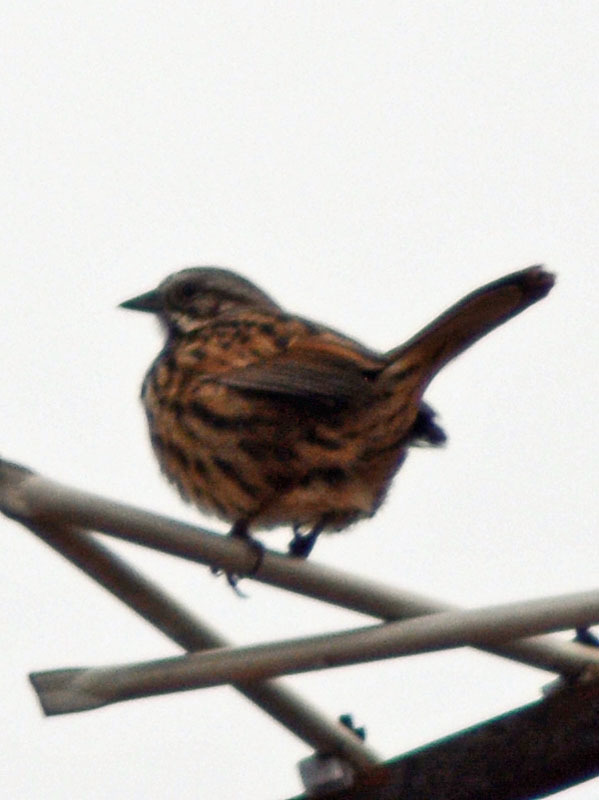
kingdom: Animalia
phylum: Chordata
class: Aves
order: Passeriformes
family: Passerellidae
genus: Melospiza
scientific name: Melospiza melodia
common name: Song sparrow
